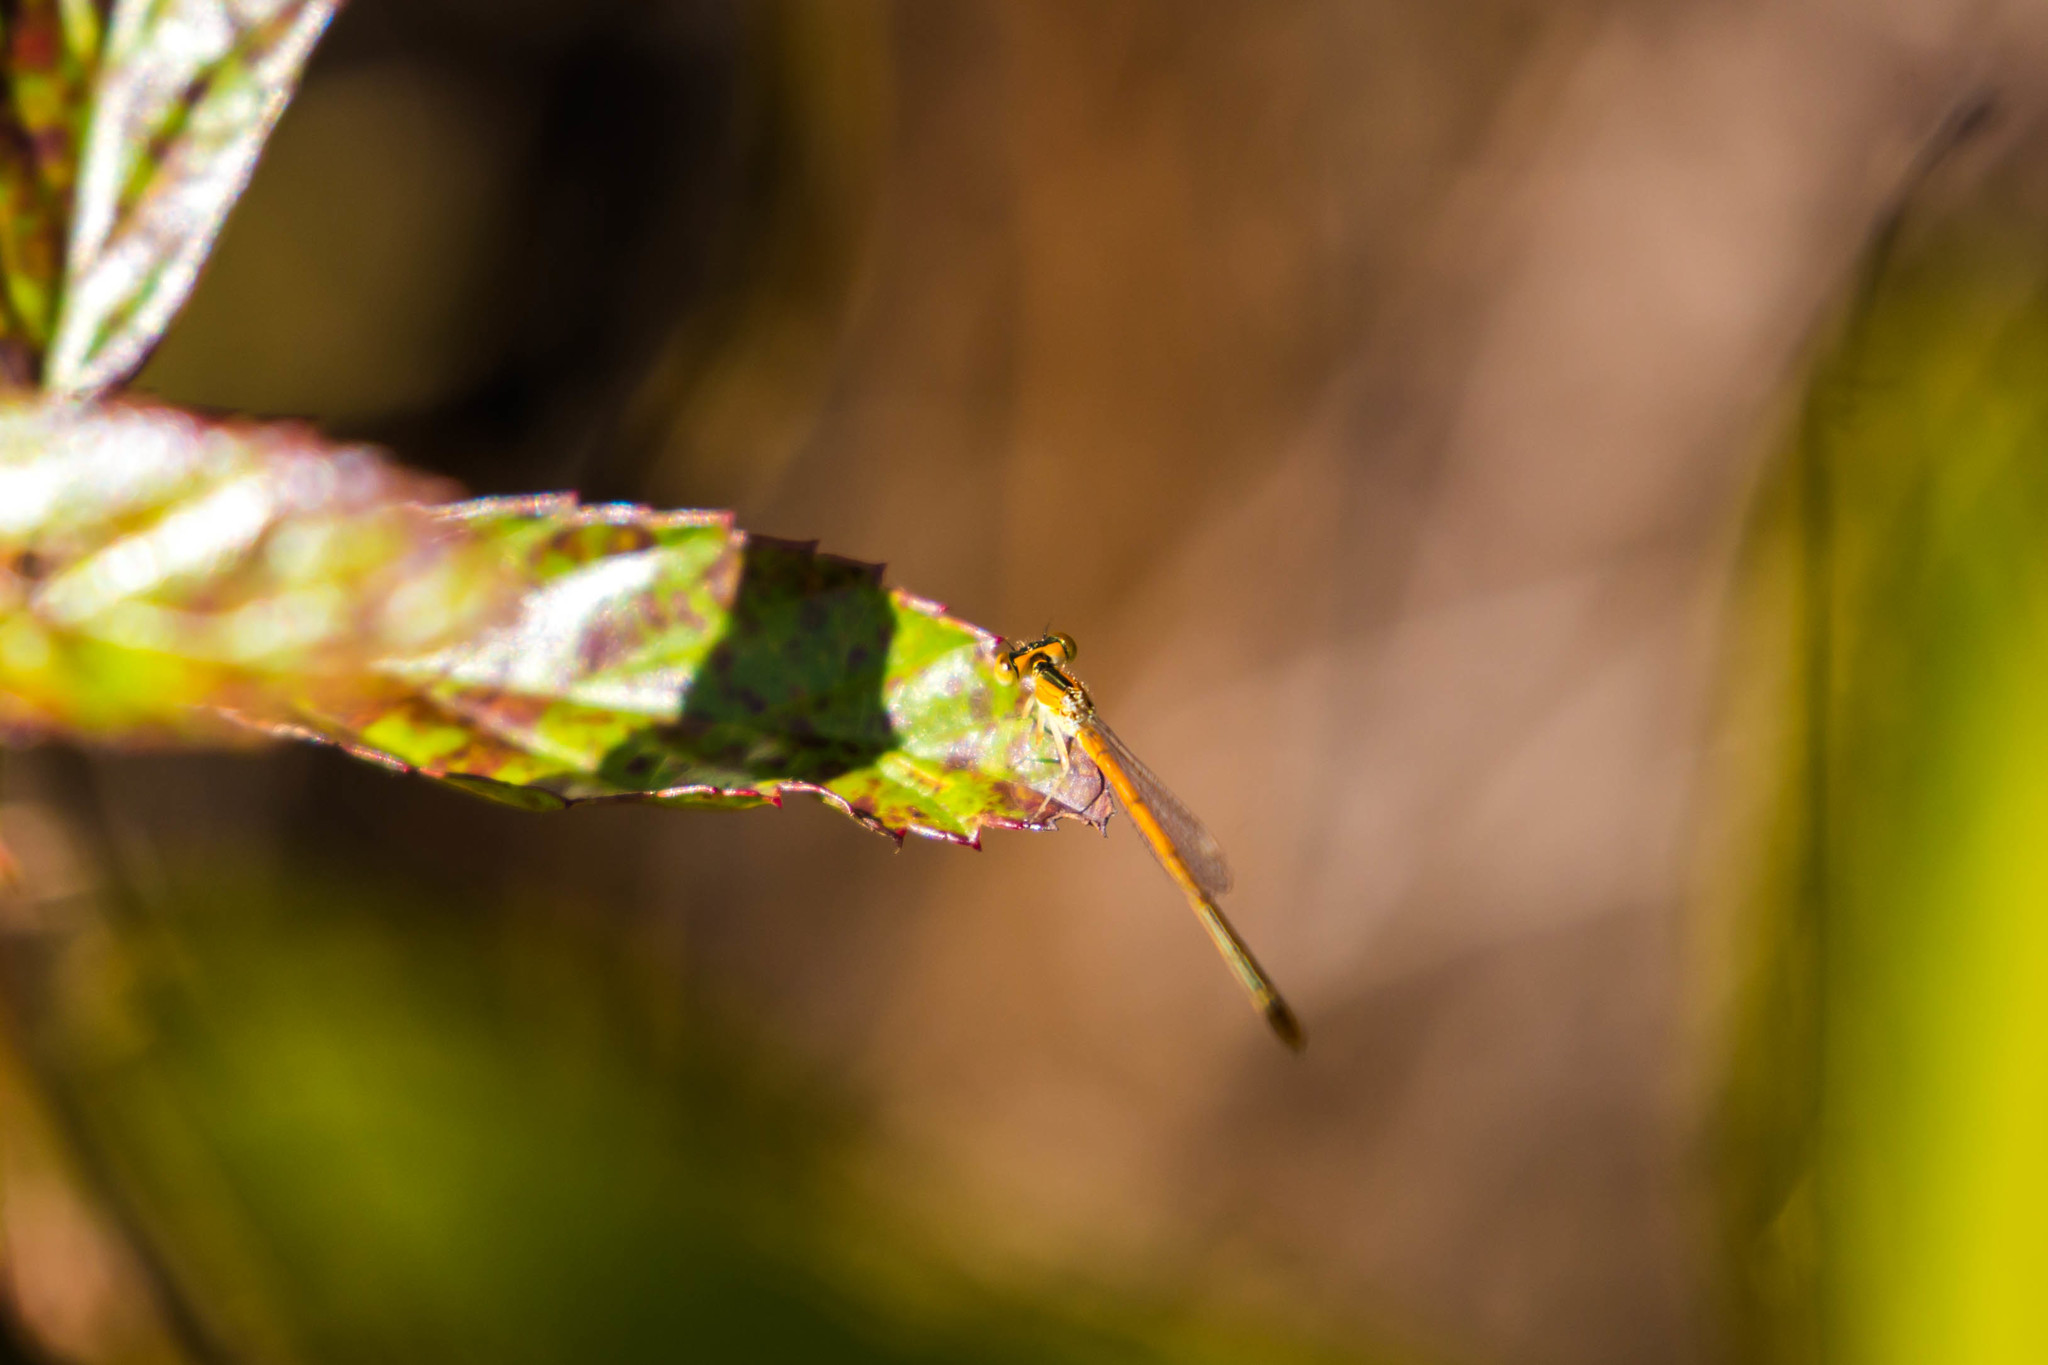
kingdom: Animalia
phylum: Arthropoda
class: Insecta
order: Odonata
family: Coenagrionidae
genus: Ischnura
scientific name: Ischnura hastata
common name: Citrine forktail
